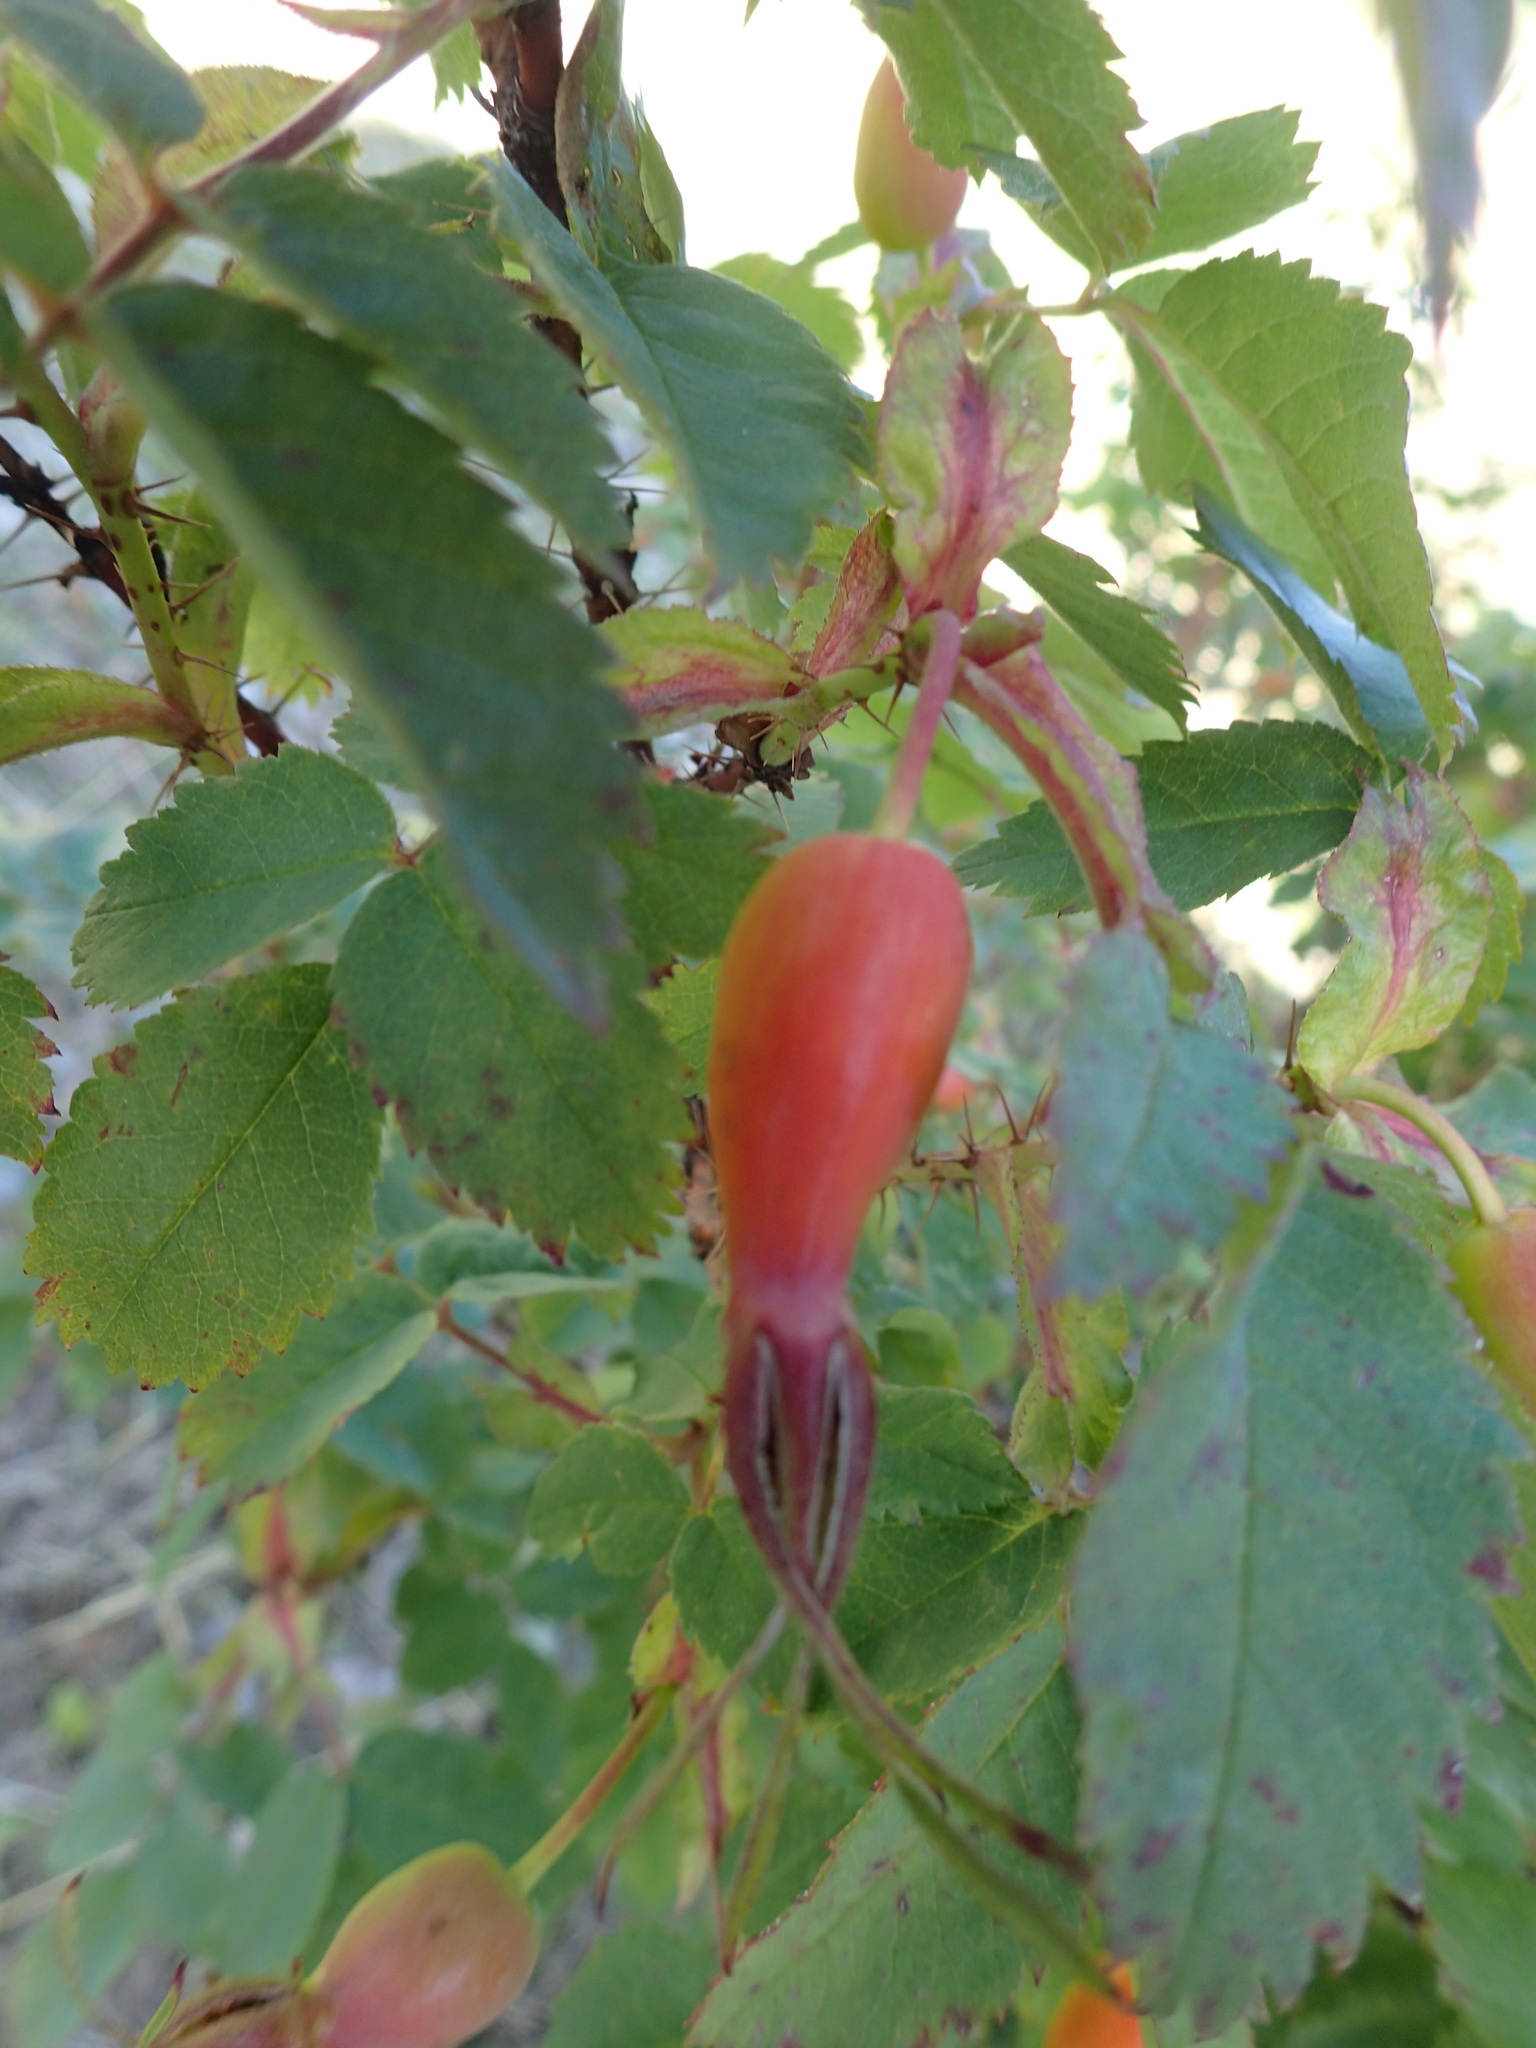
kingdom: Plantae
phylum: Tracheophyta
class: Magnoliopsida
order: Rosales
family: Rosaceae
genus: Rosa
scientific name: Rosa acicularis
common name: Prickly rose
